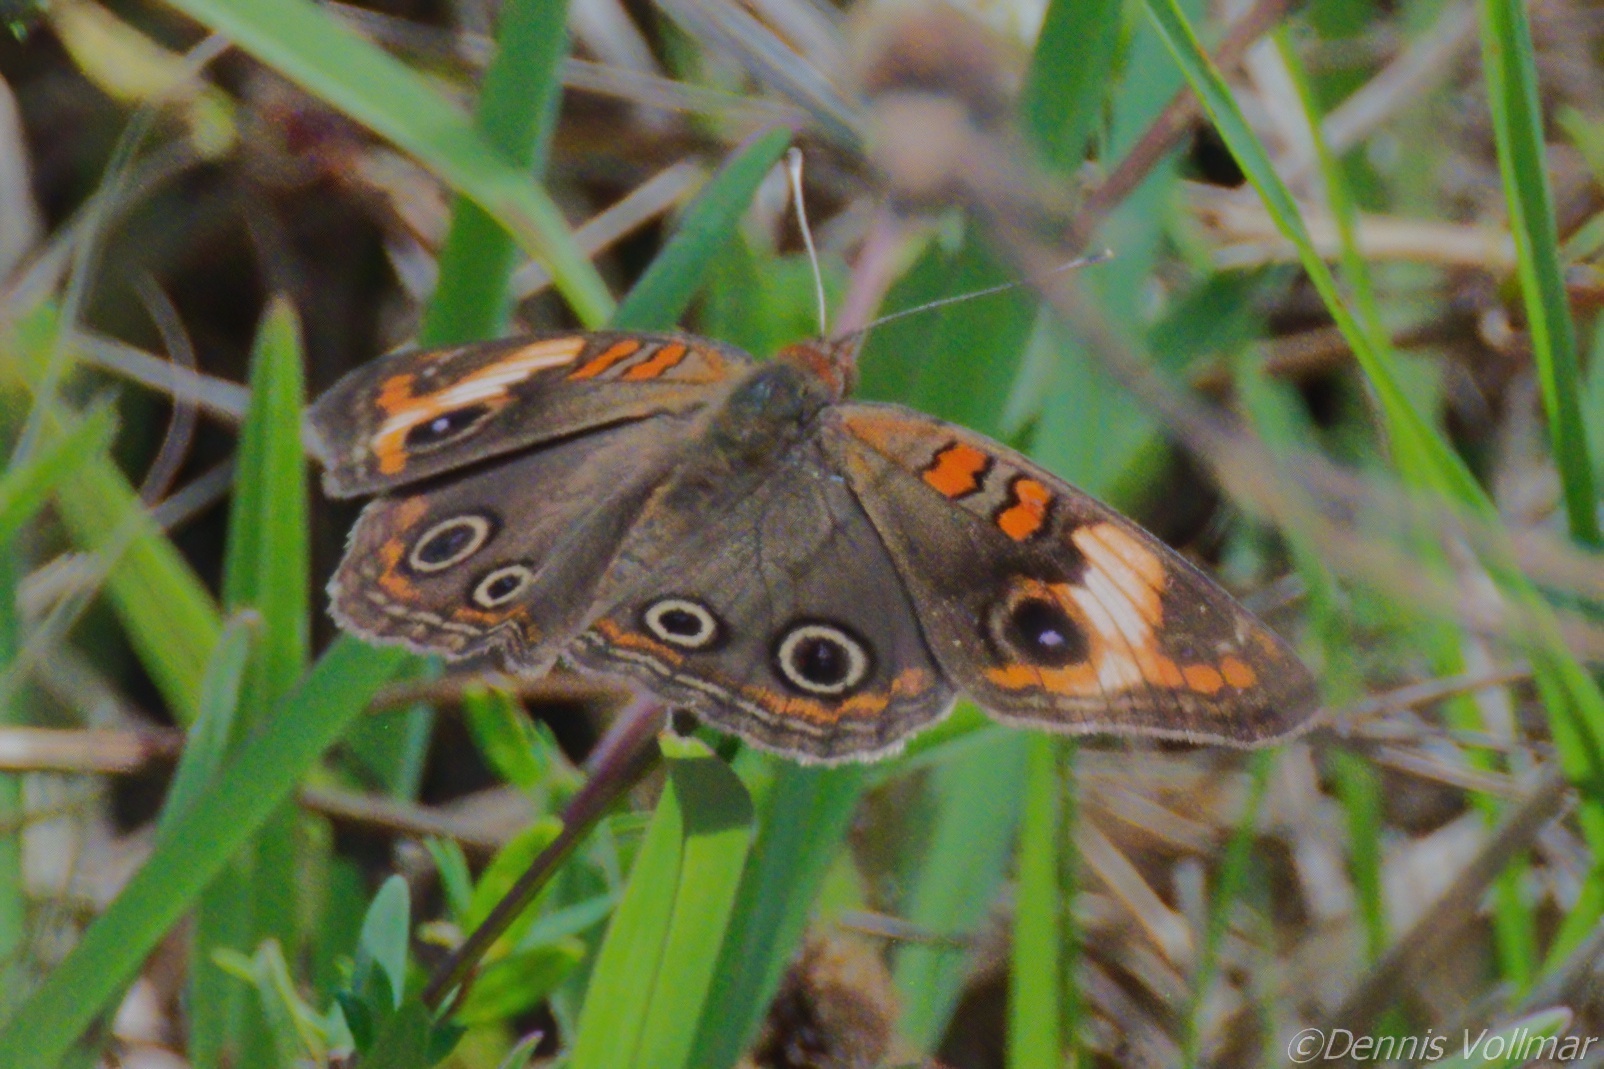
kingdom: Animalia
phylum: Arthropoda
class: Insecta
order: Lepidoptera
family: Nymphalidae
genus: Junonia
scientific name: Junonia lavinia
